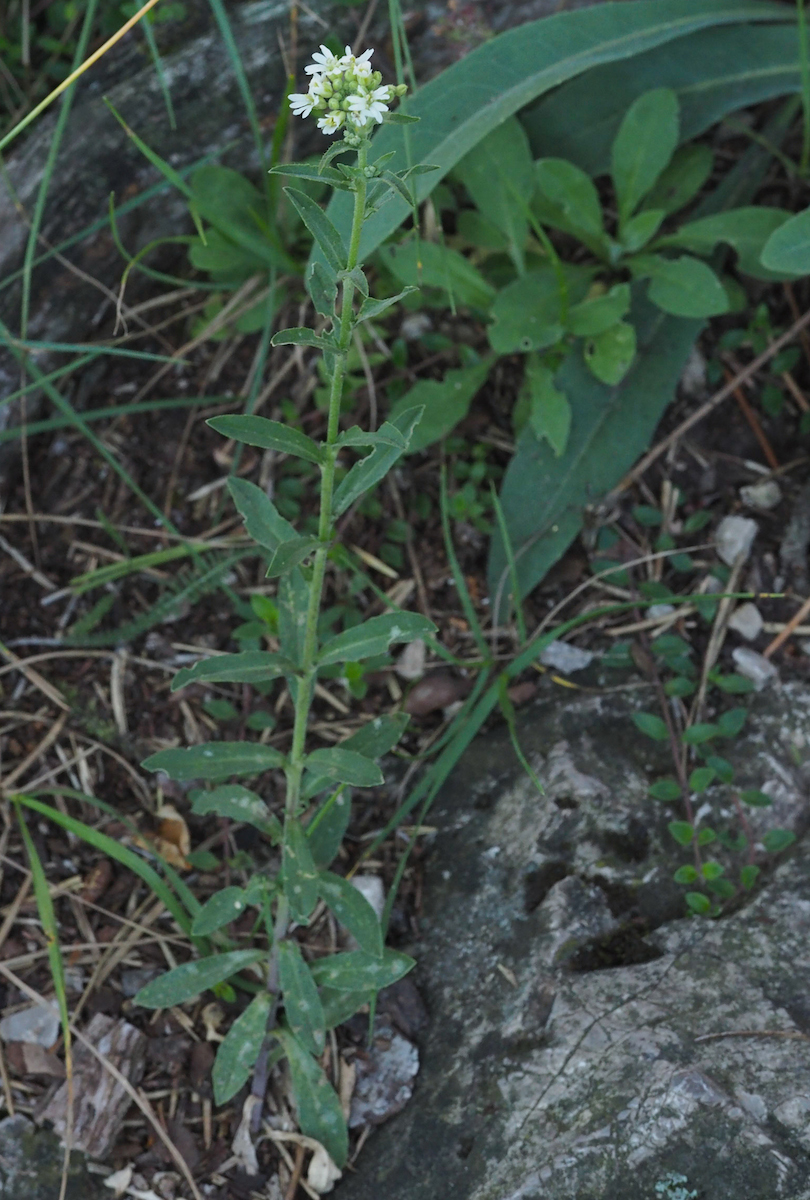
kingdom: Plantae
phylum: Tracheophyta
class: Magnoliopsida
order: Brassicales
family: Brassicaceae
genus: Berteroa
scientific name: Berteroa incana
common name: Hoary alison
